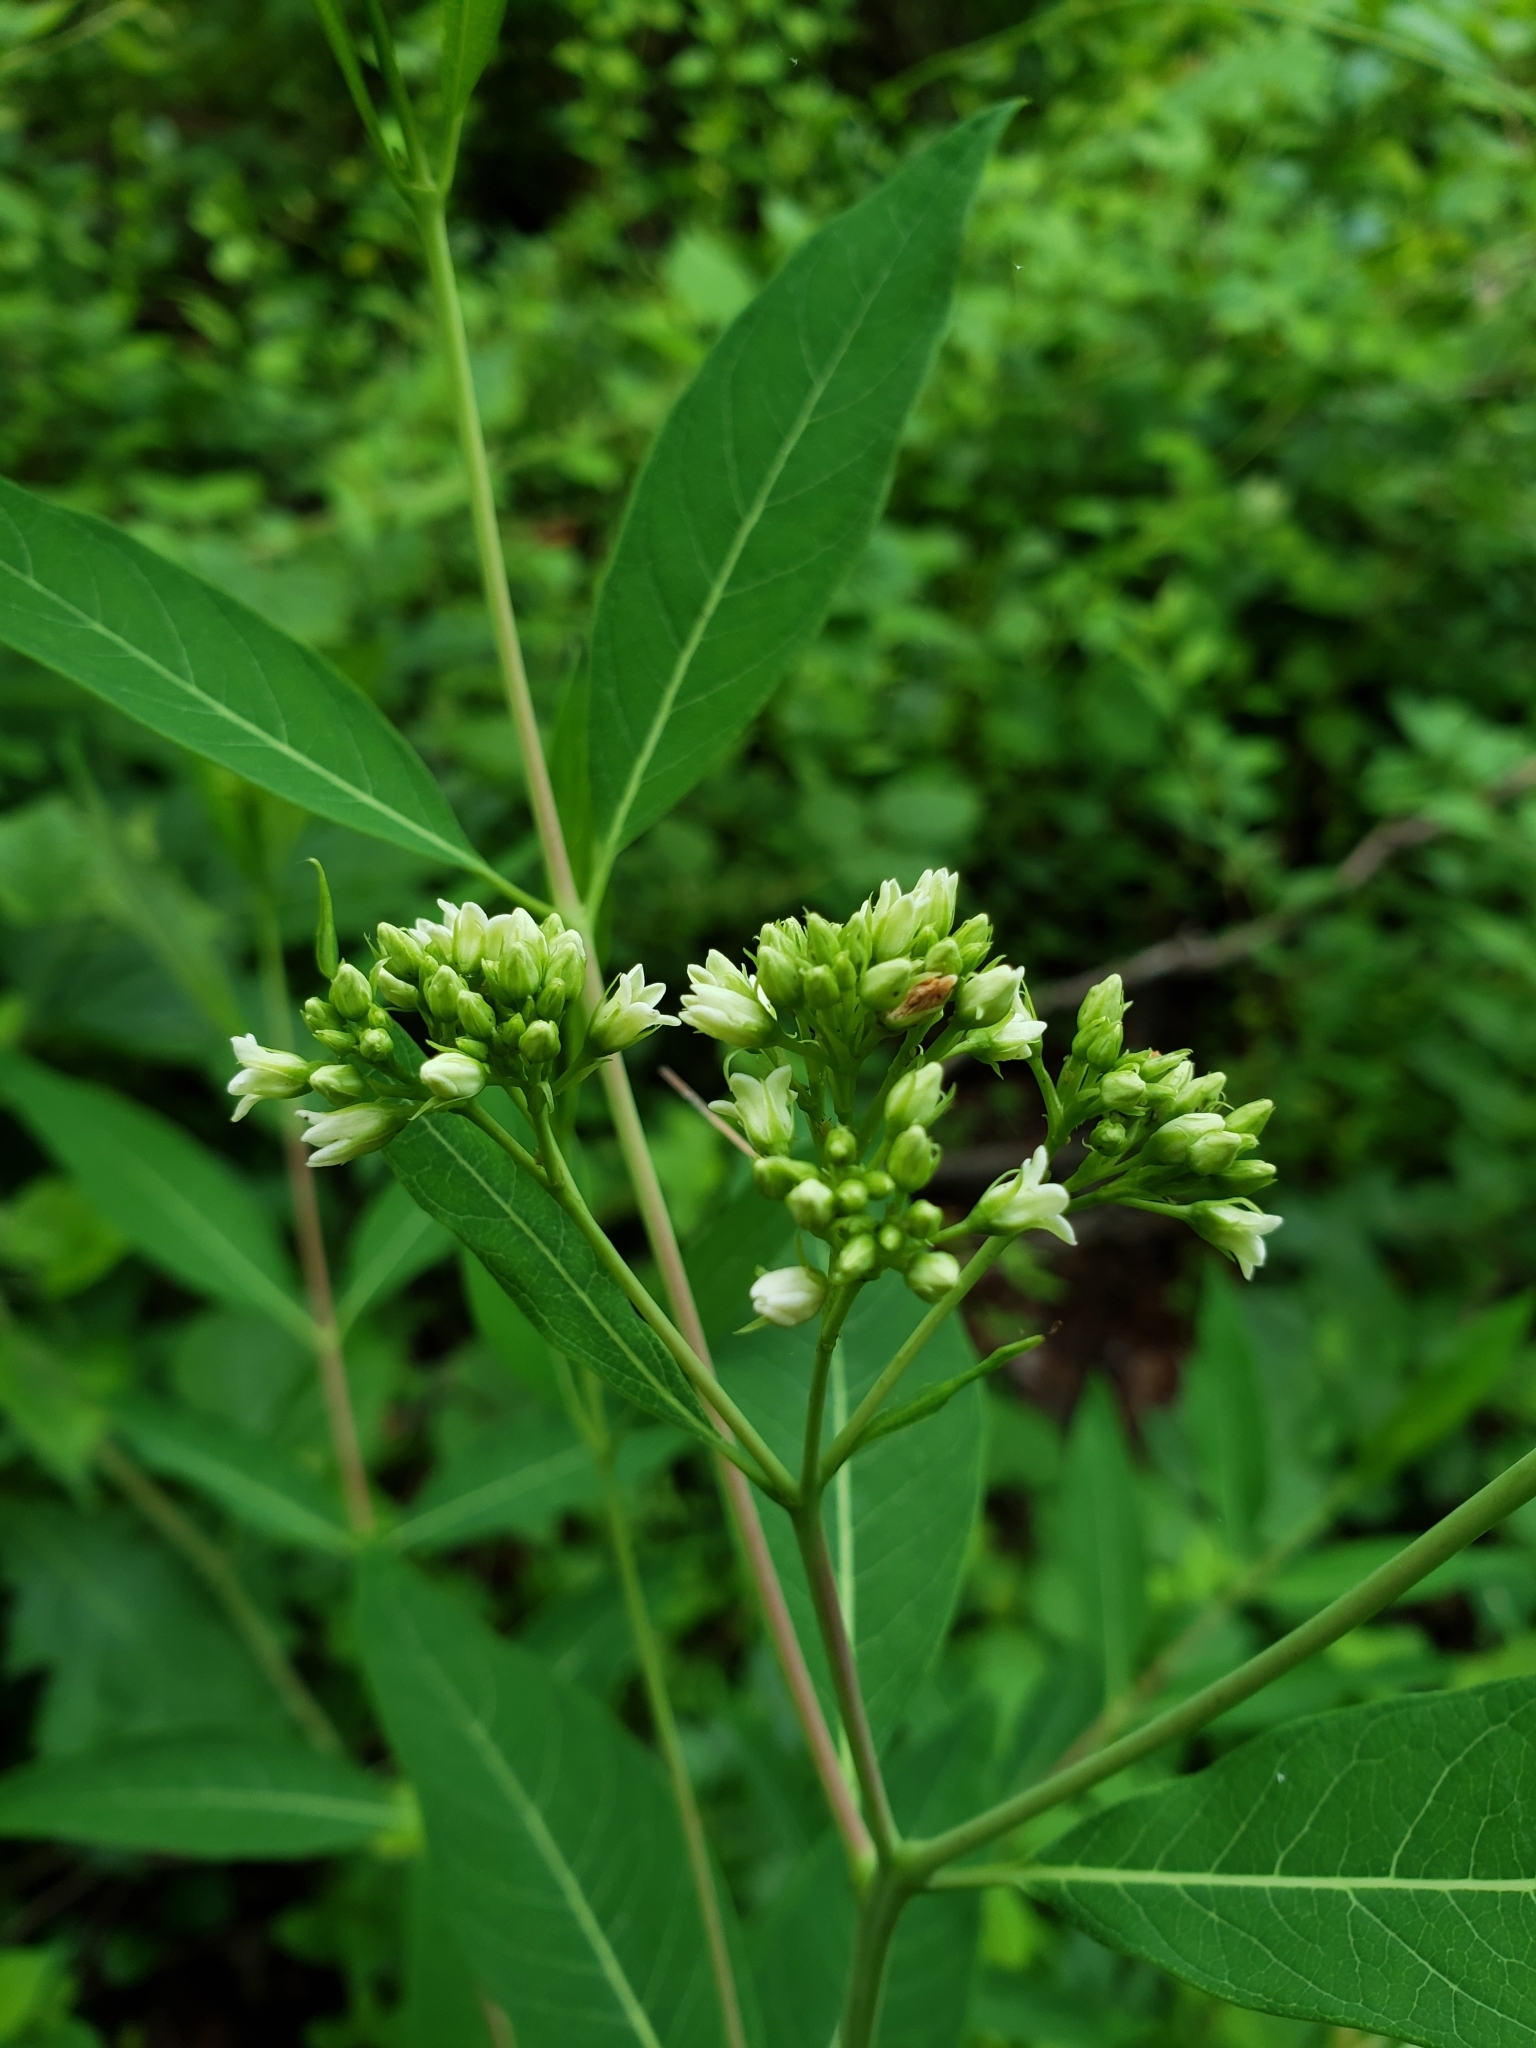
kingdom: Plantae
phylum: Tracheophyta
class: Magnoliopsida
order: Gentianales
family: Apocynaceae
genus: Apocynum
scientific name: Apocynum cannabinum
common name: Hemp dogbane
